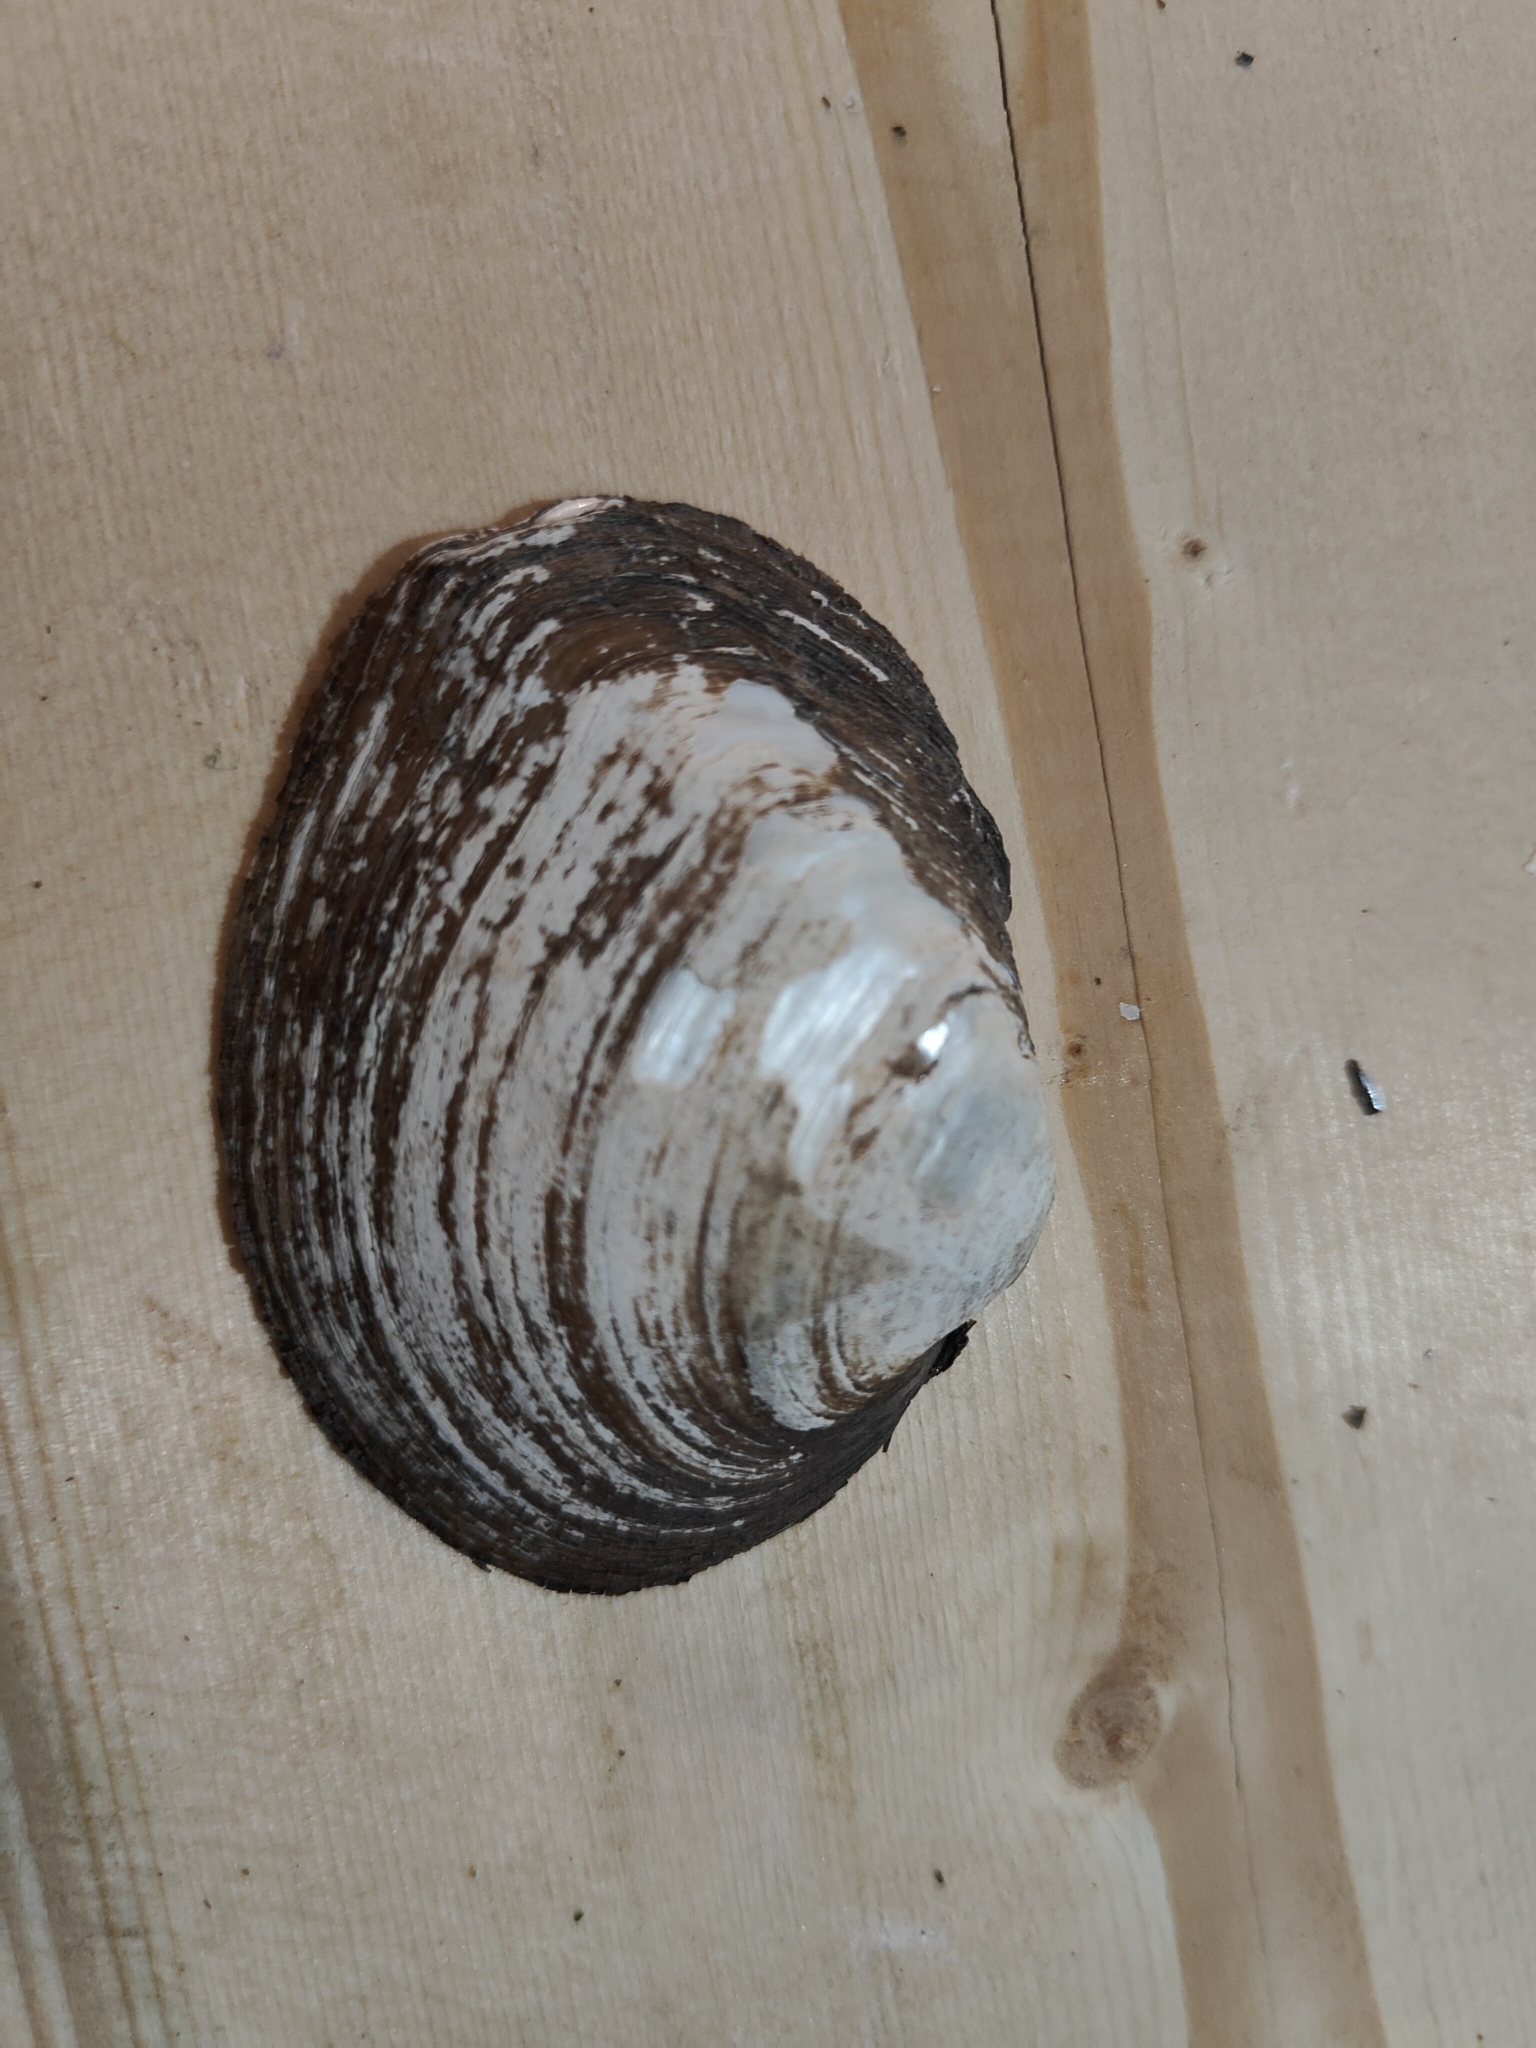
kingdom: Animalia
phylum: Mollusca
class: Bivalvia
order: Unionida
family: Unionidae
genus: Fusconaia
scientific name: Fusconaia flava
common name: Wabash pigtoe
